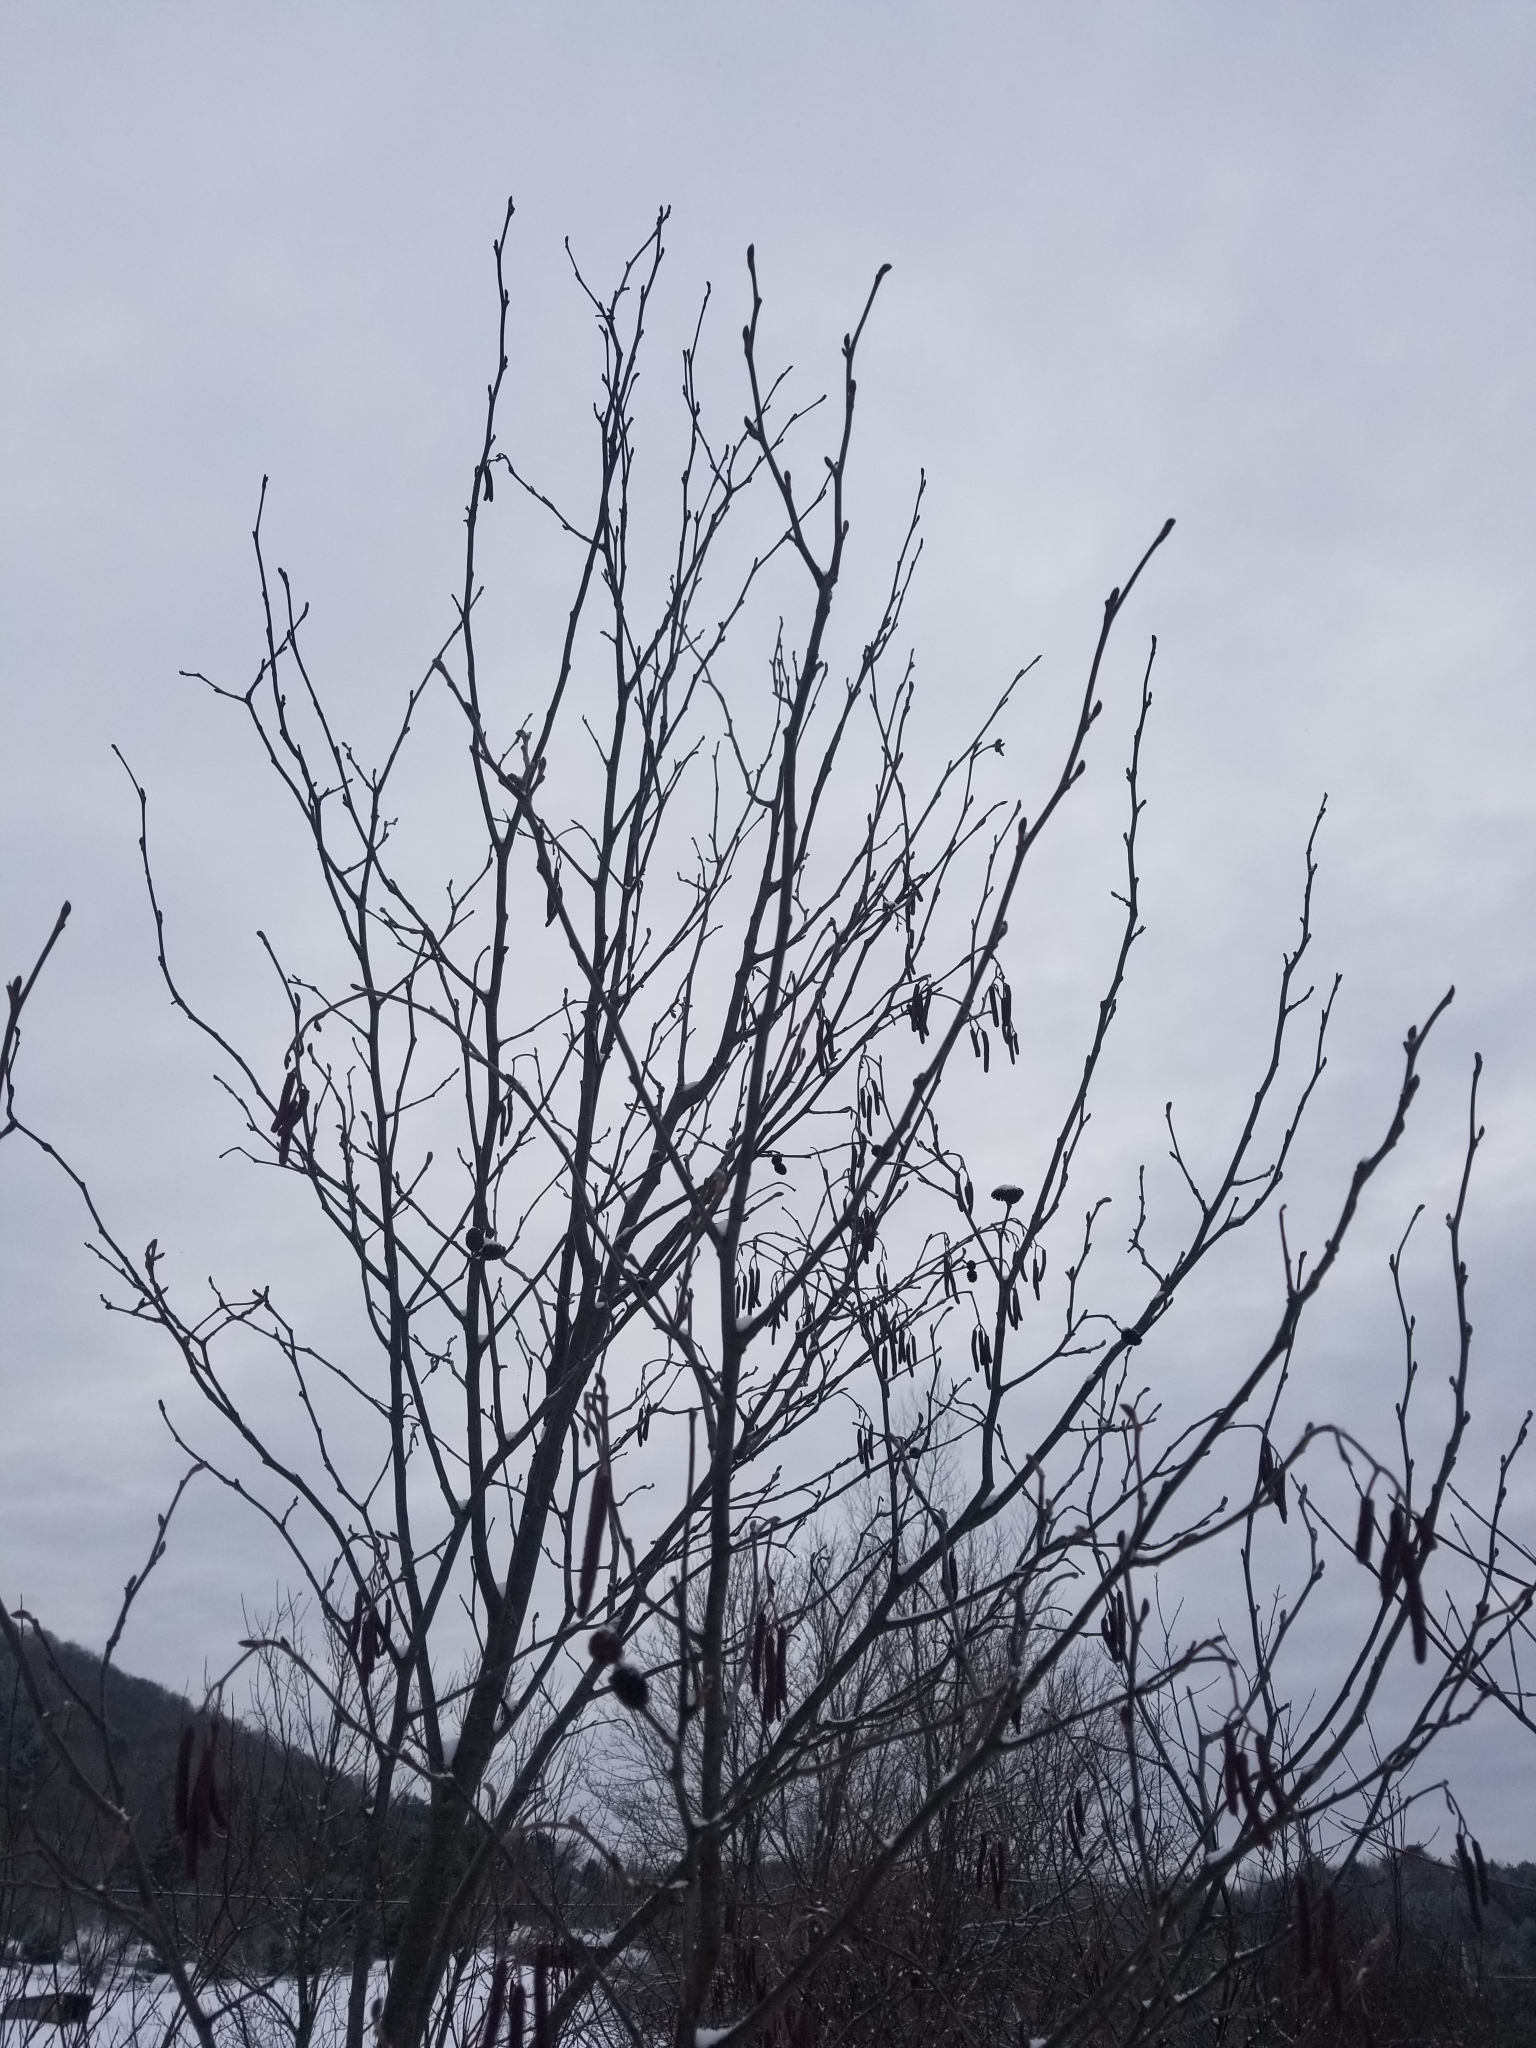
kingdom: Plantae
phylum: Tracheophyta
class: Magnoliopsida
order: Fagales
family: Betulaceae
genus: Alnus
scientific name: Alnus incana
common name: Grey alder
